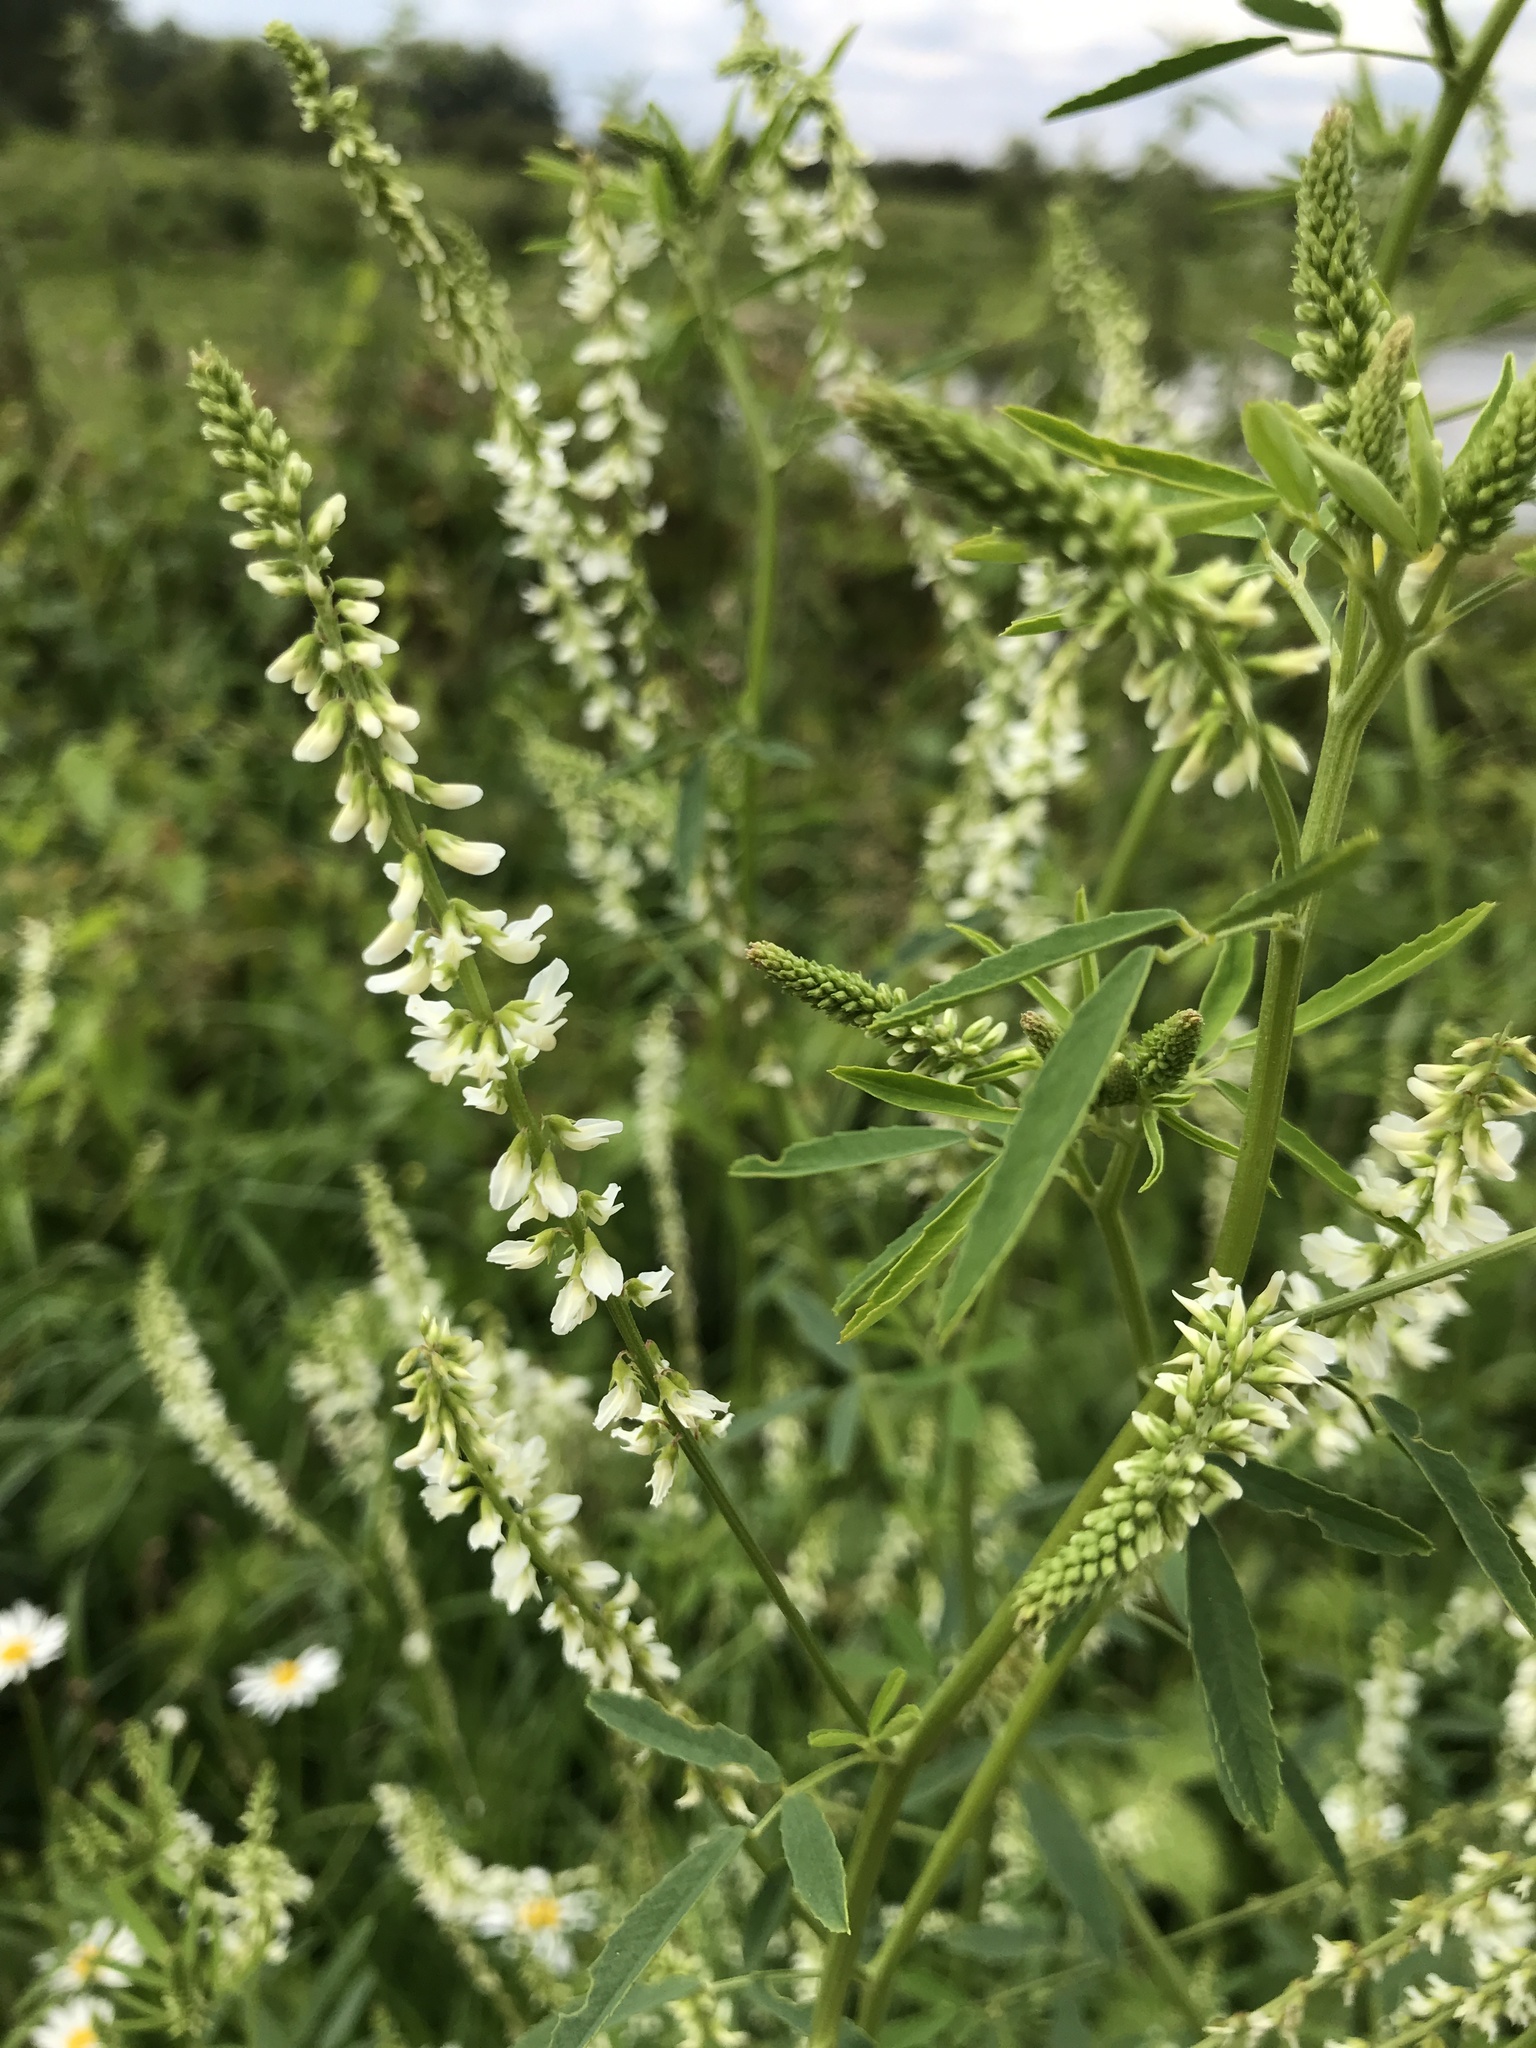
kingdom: Plantae
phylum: Tracheophyta
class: Magnoliopsida
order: Fabales
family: Fabaceae
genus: Melilotus
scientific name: Melilotus albus
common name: White melilot
